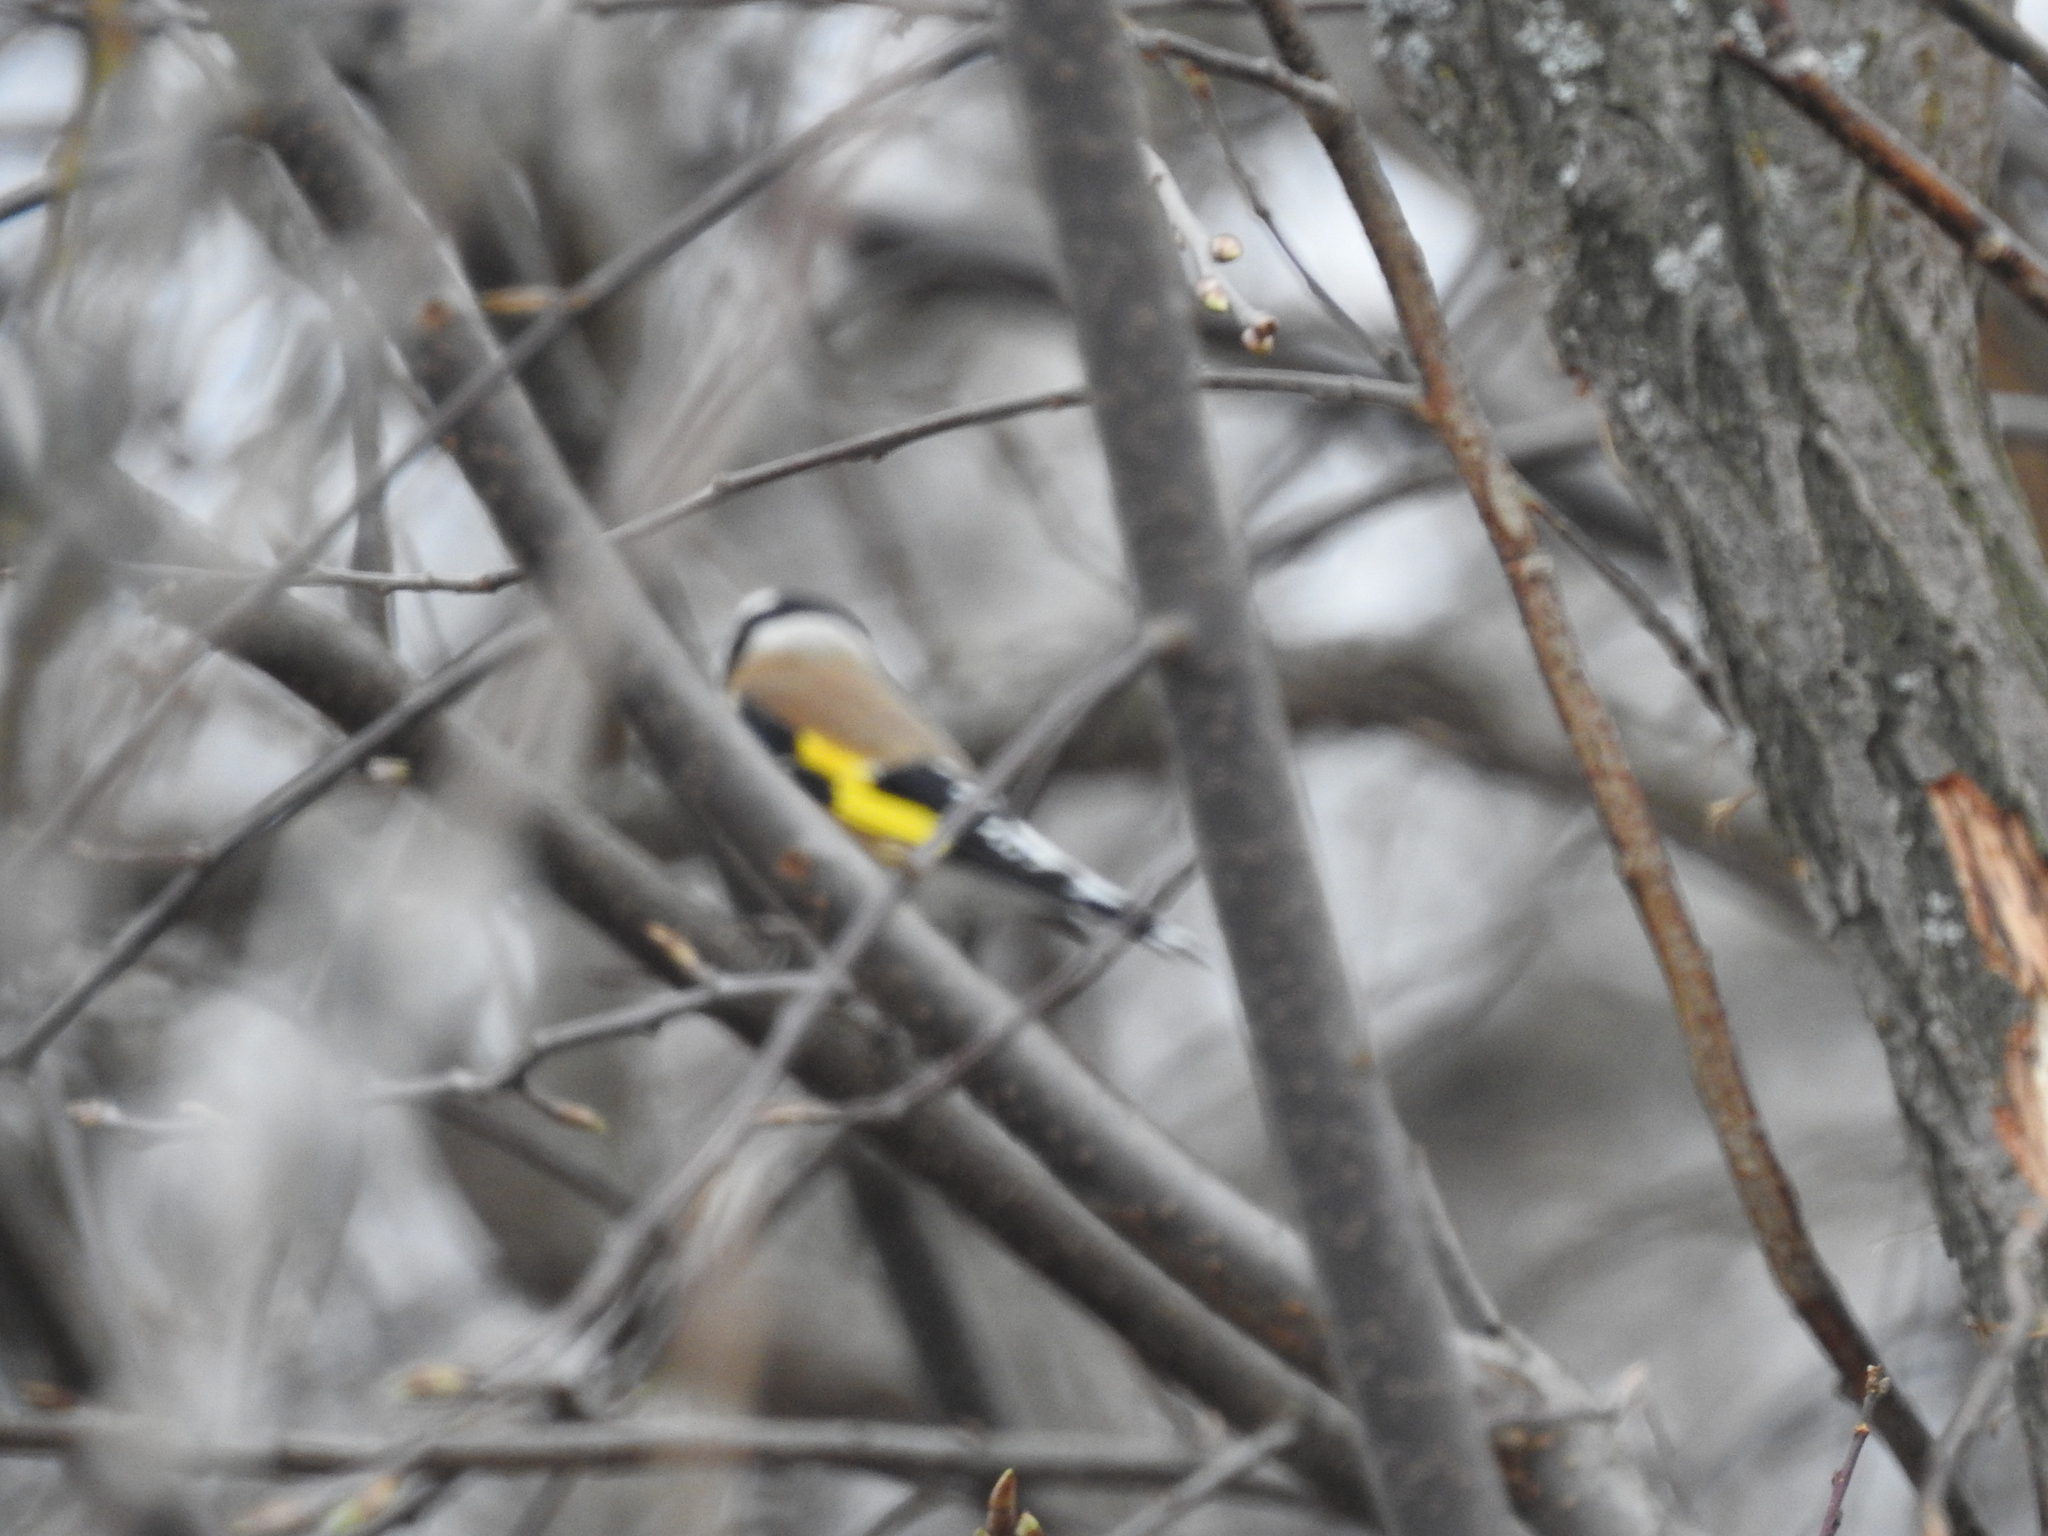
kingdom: Animalia
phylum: Chordata
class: Aves
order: Passeriformes
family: Fringillidae
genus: Carduelis
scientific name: Carduelis carduelis
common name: European goldfinch
